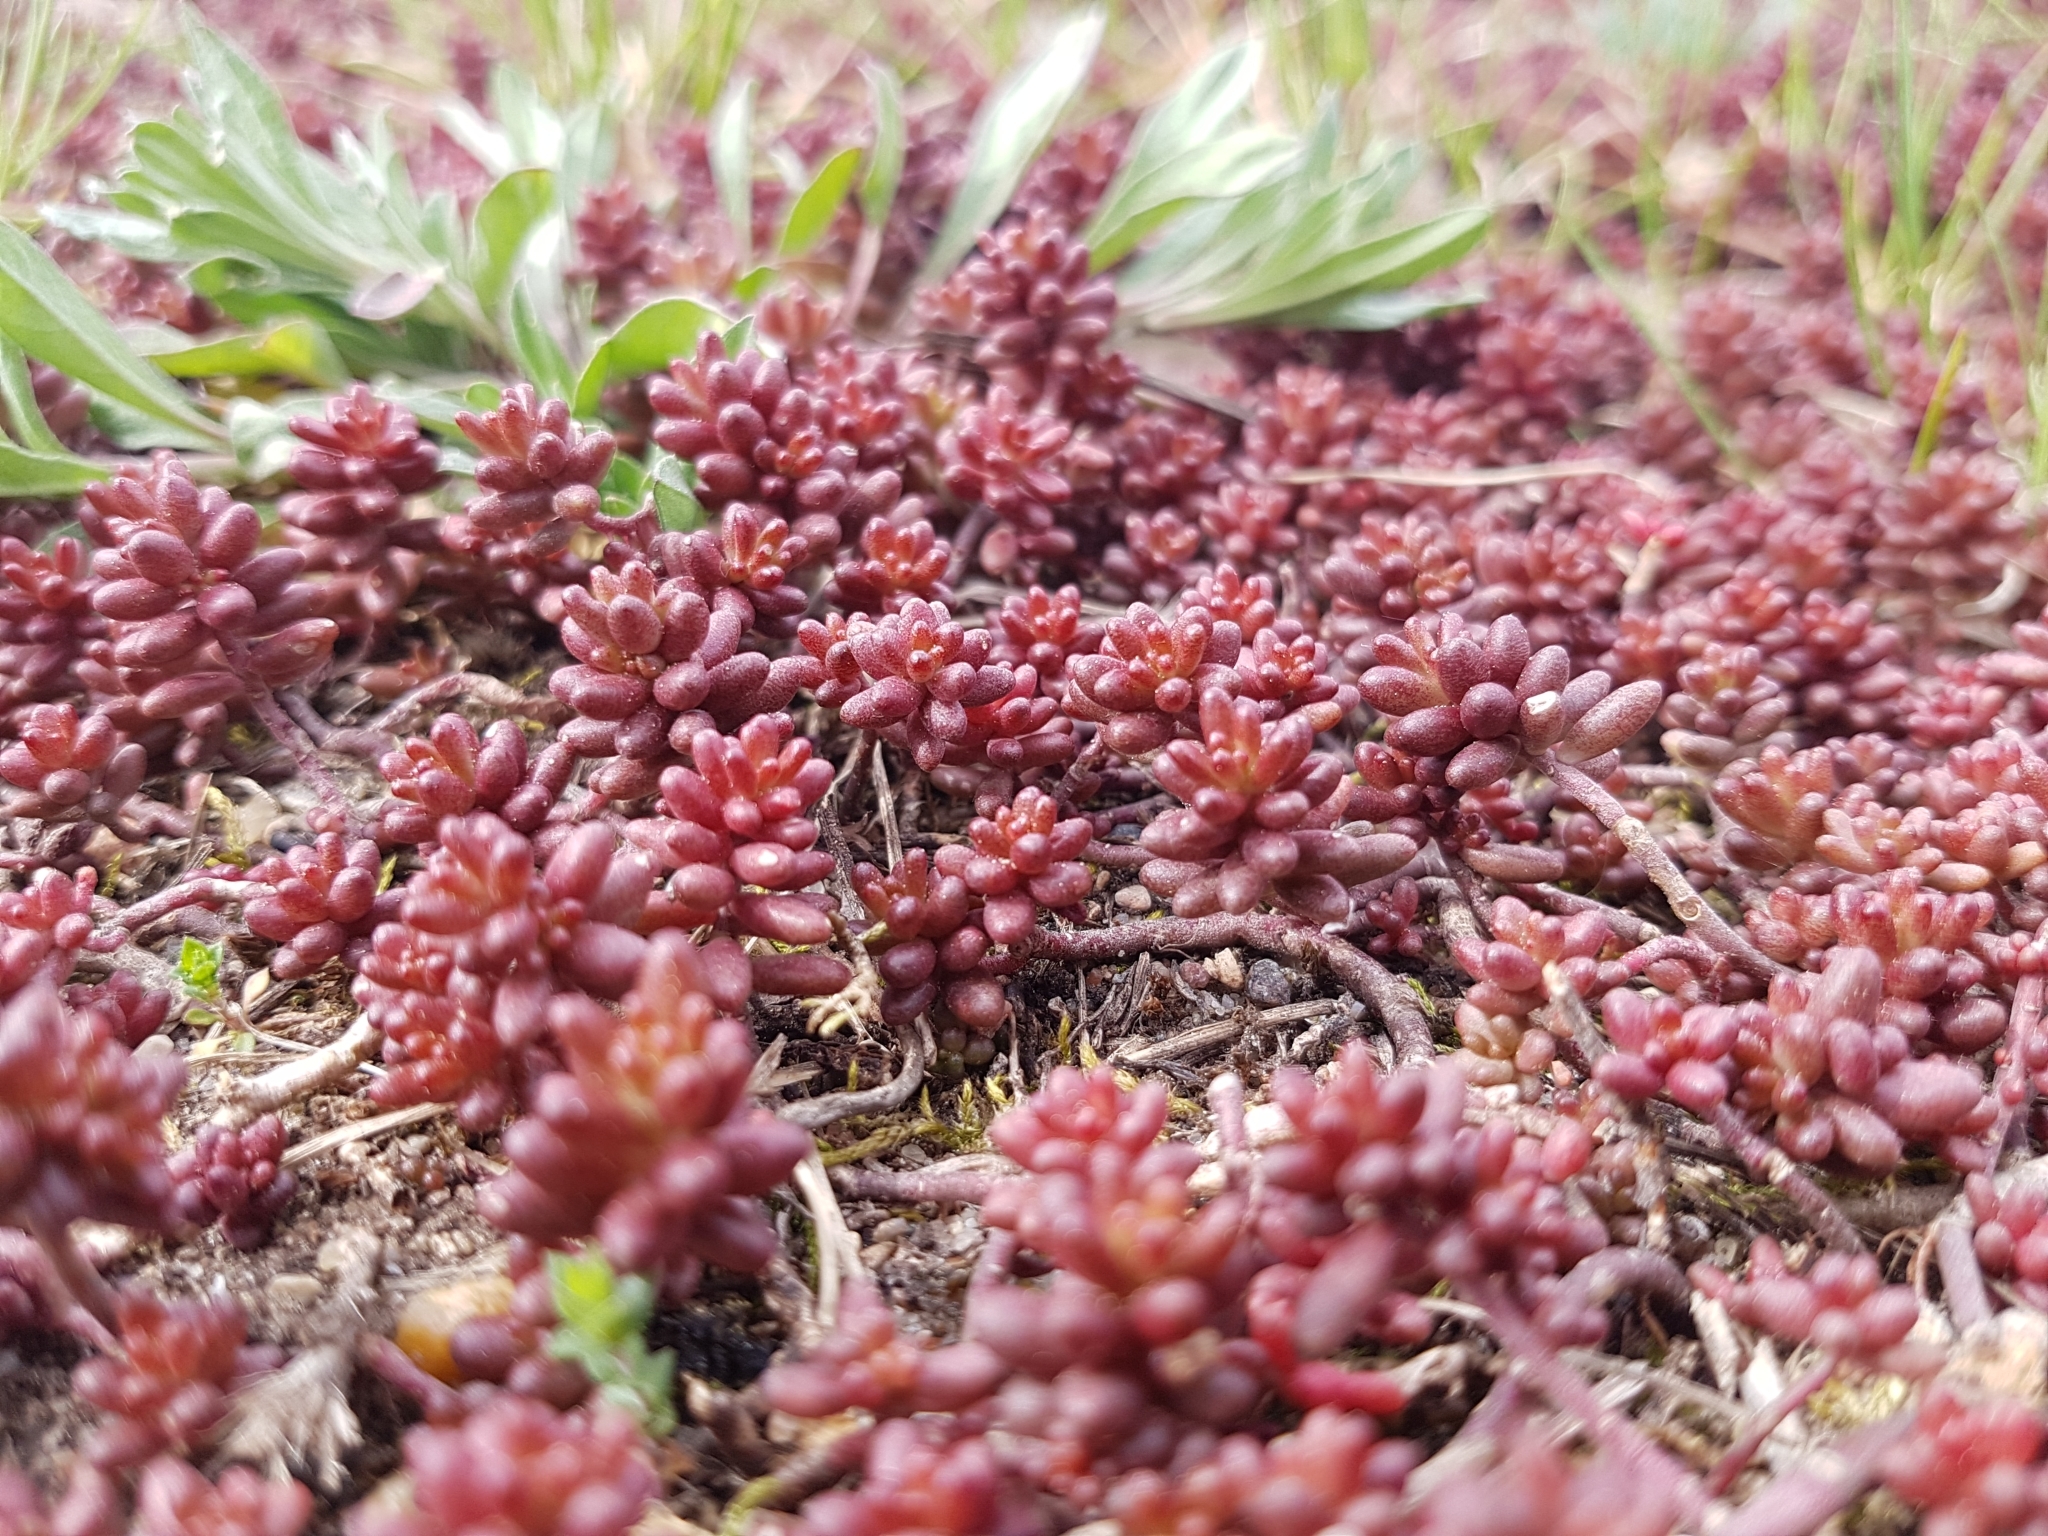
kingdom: Plantae
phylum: Tracheophyta
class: Magnoliopsida
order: Saxifragales
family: Crassulaceae
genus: Sedum
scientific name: Sedum album
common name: White stonecrop
